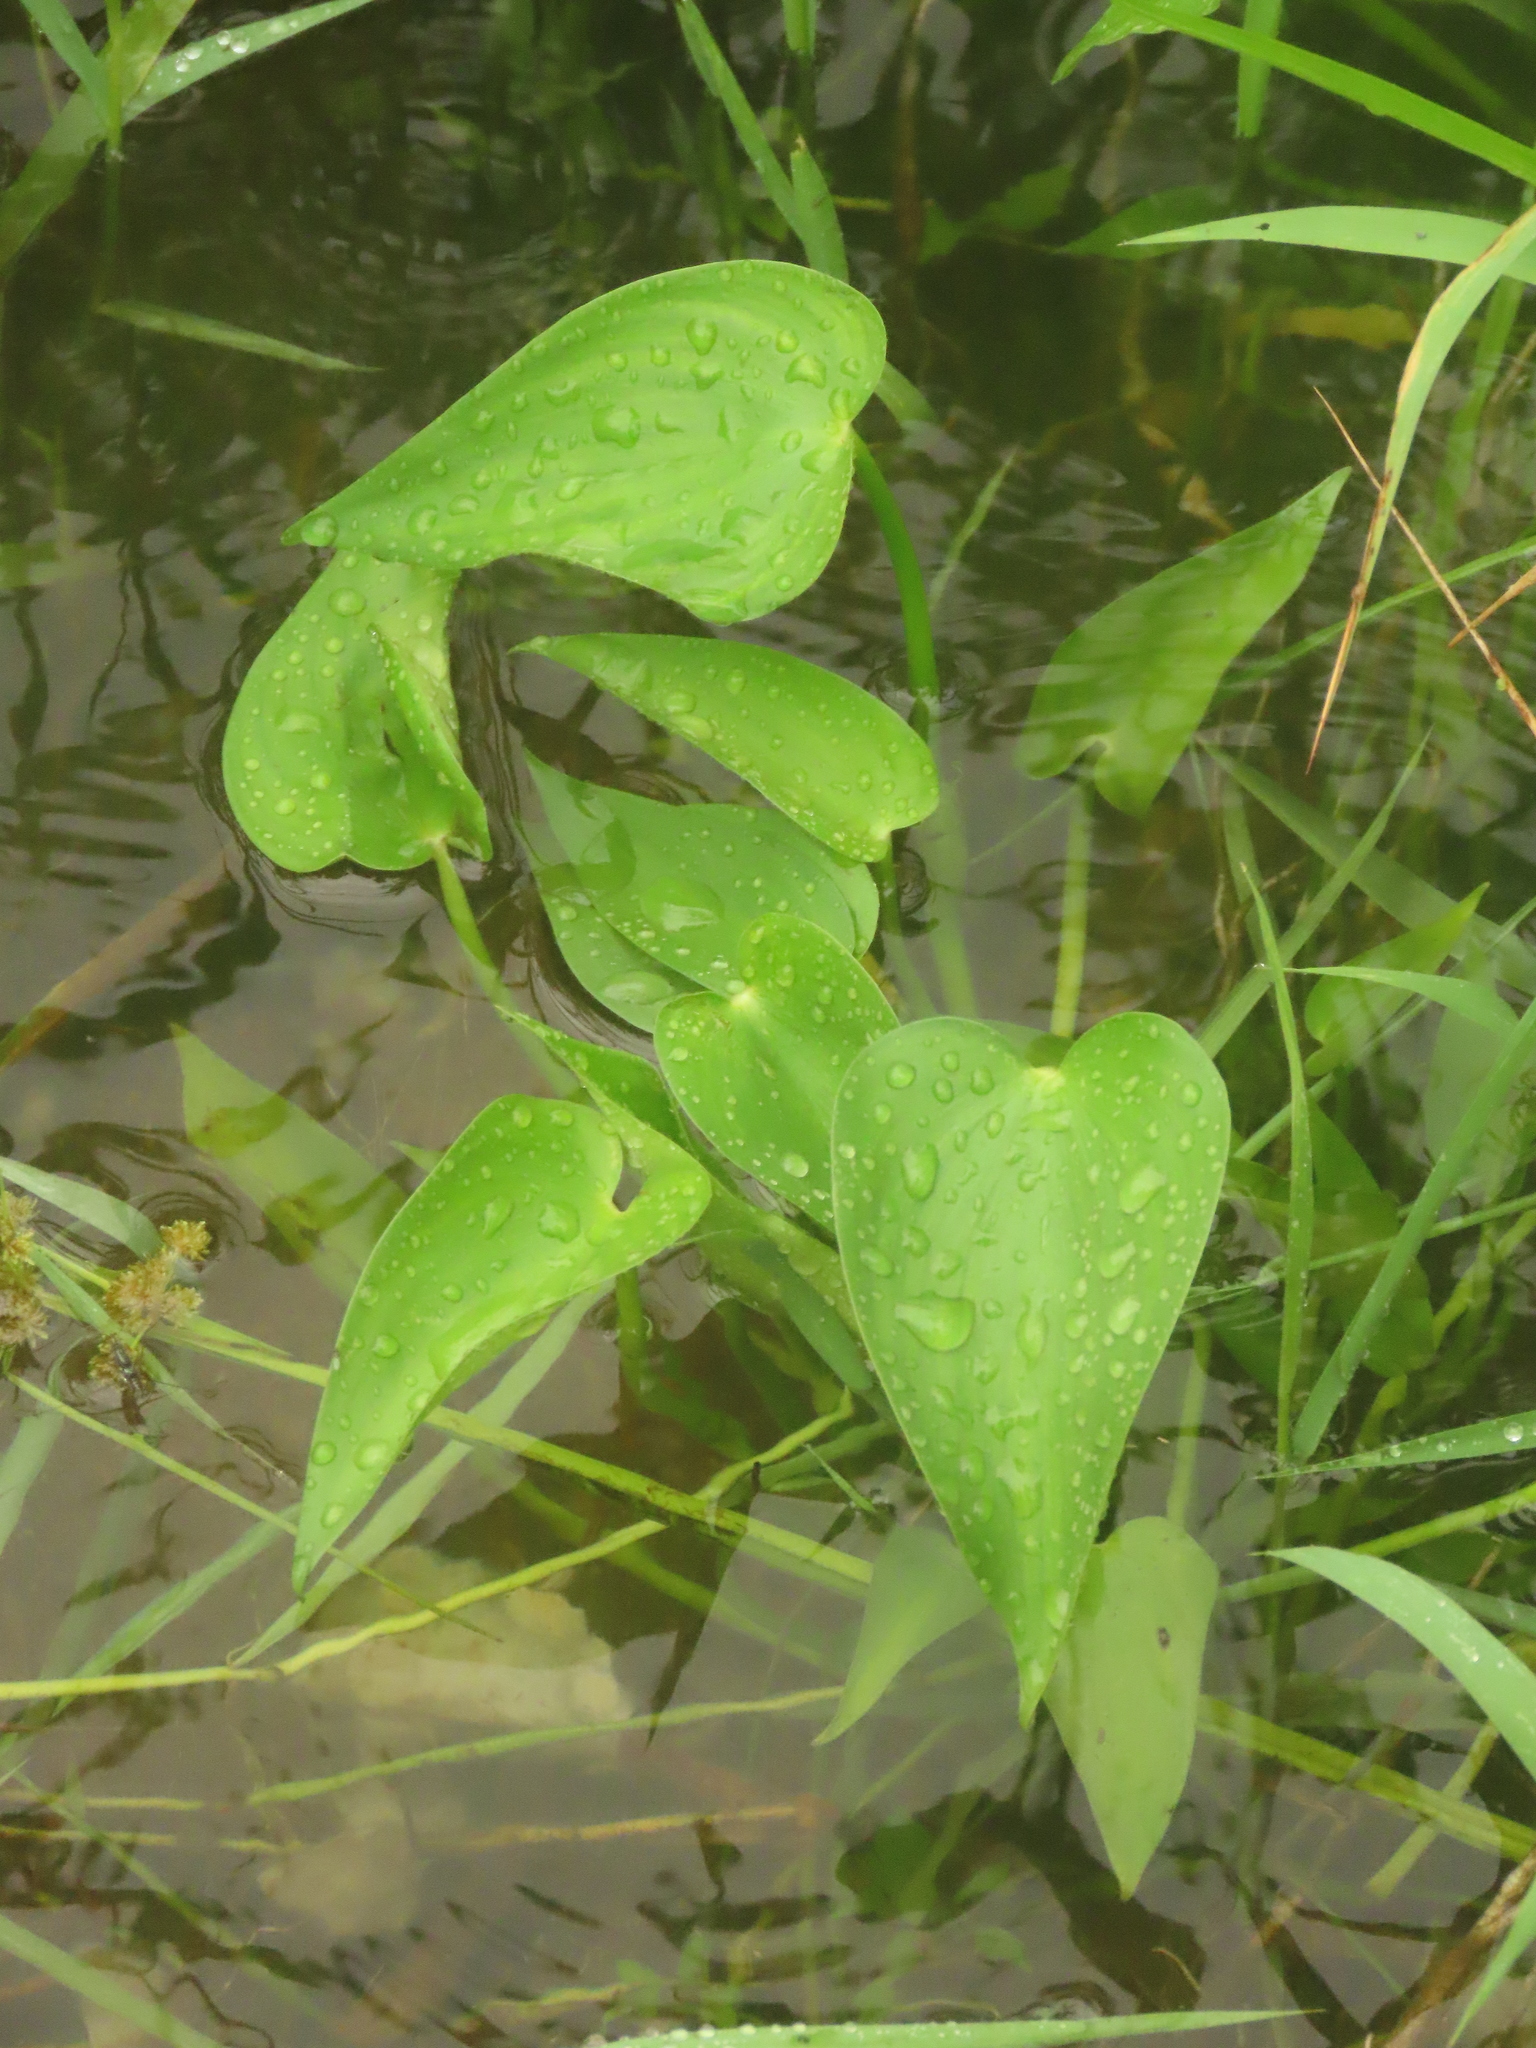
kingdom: Plantae
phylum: Tracheophyta
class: Liliopsida
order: Commelinales
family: Pontederiaceae
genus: Pontederia
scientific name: Pontederia vaginalis
